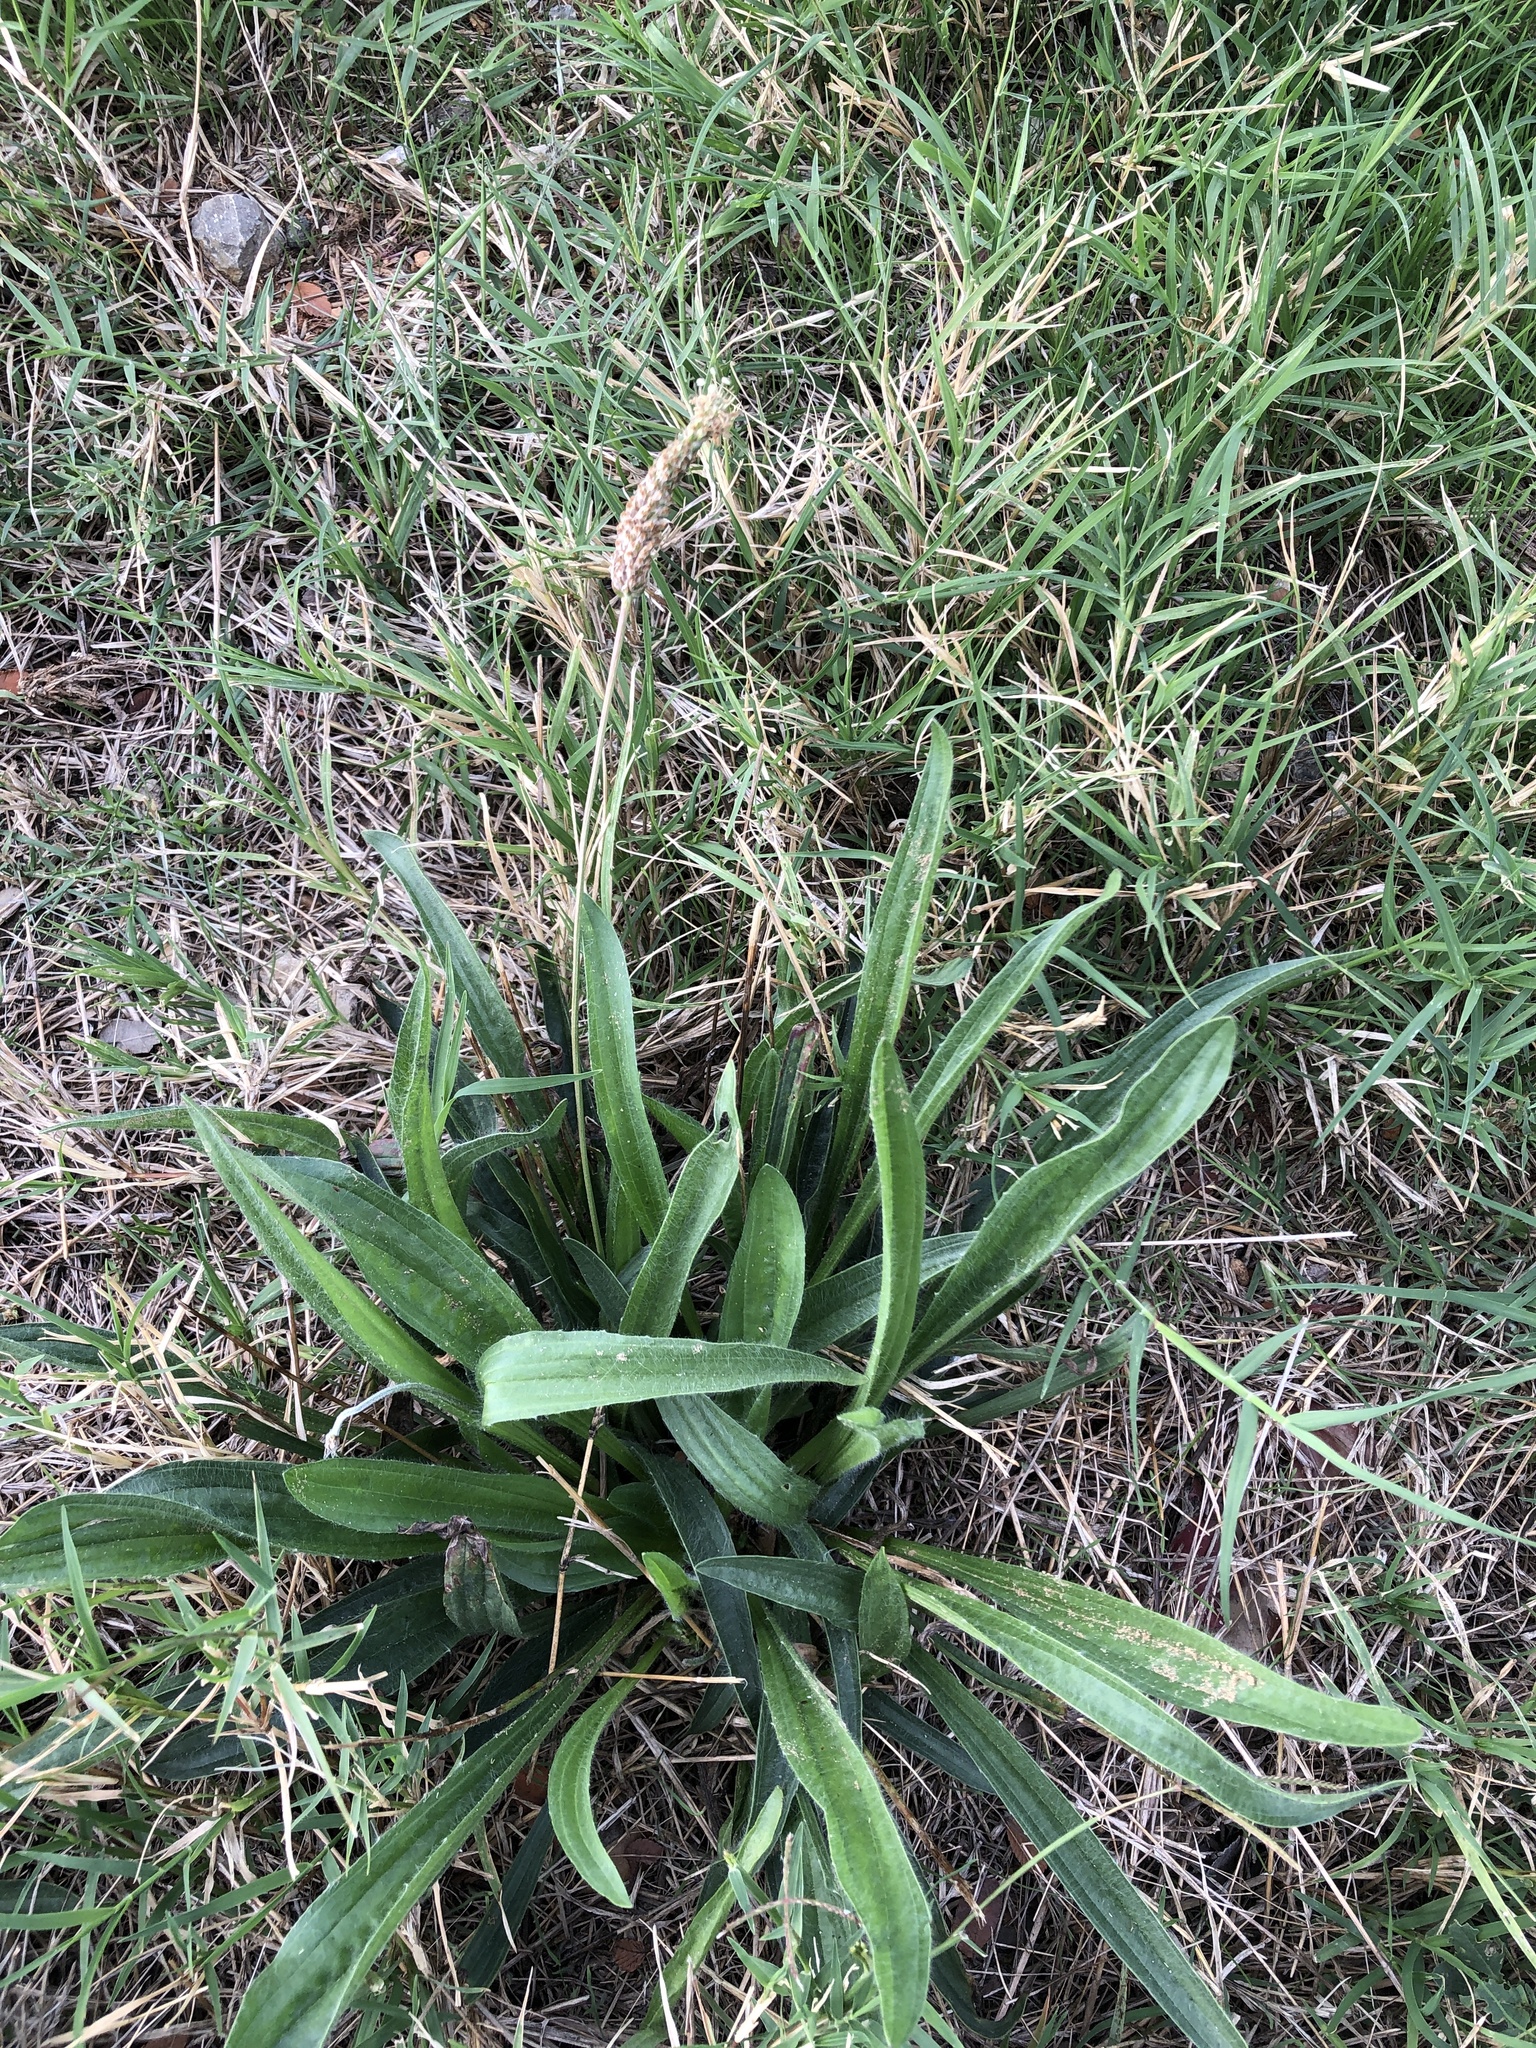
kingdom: Plantae
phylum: Tracheophyta
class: Magnoliopsida
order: Lamiales
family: Plantaginaceae
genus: Plantago
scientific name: Plantago lanceolata
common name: Ribwort plantain
